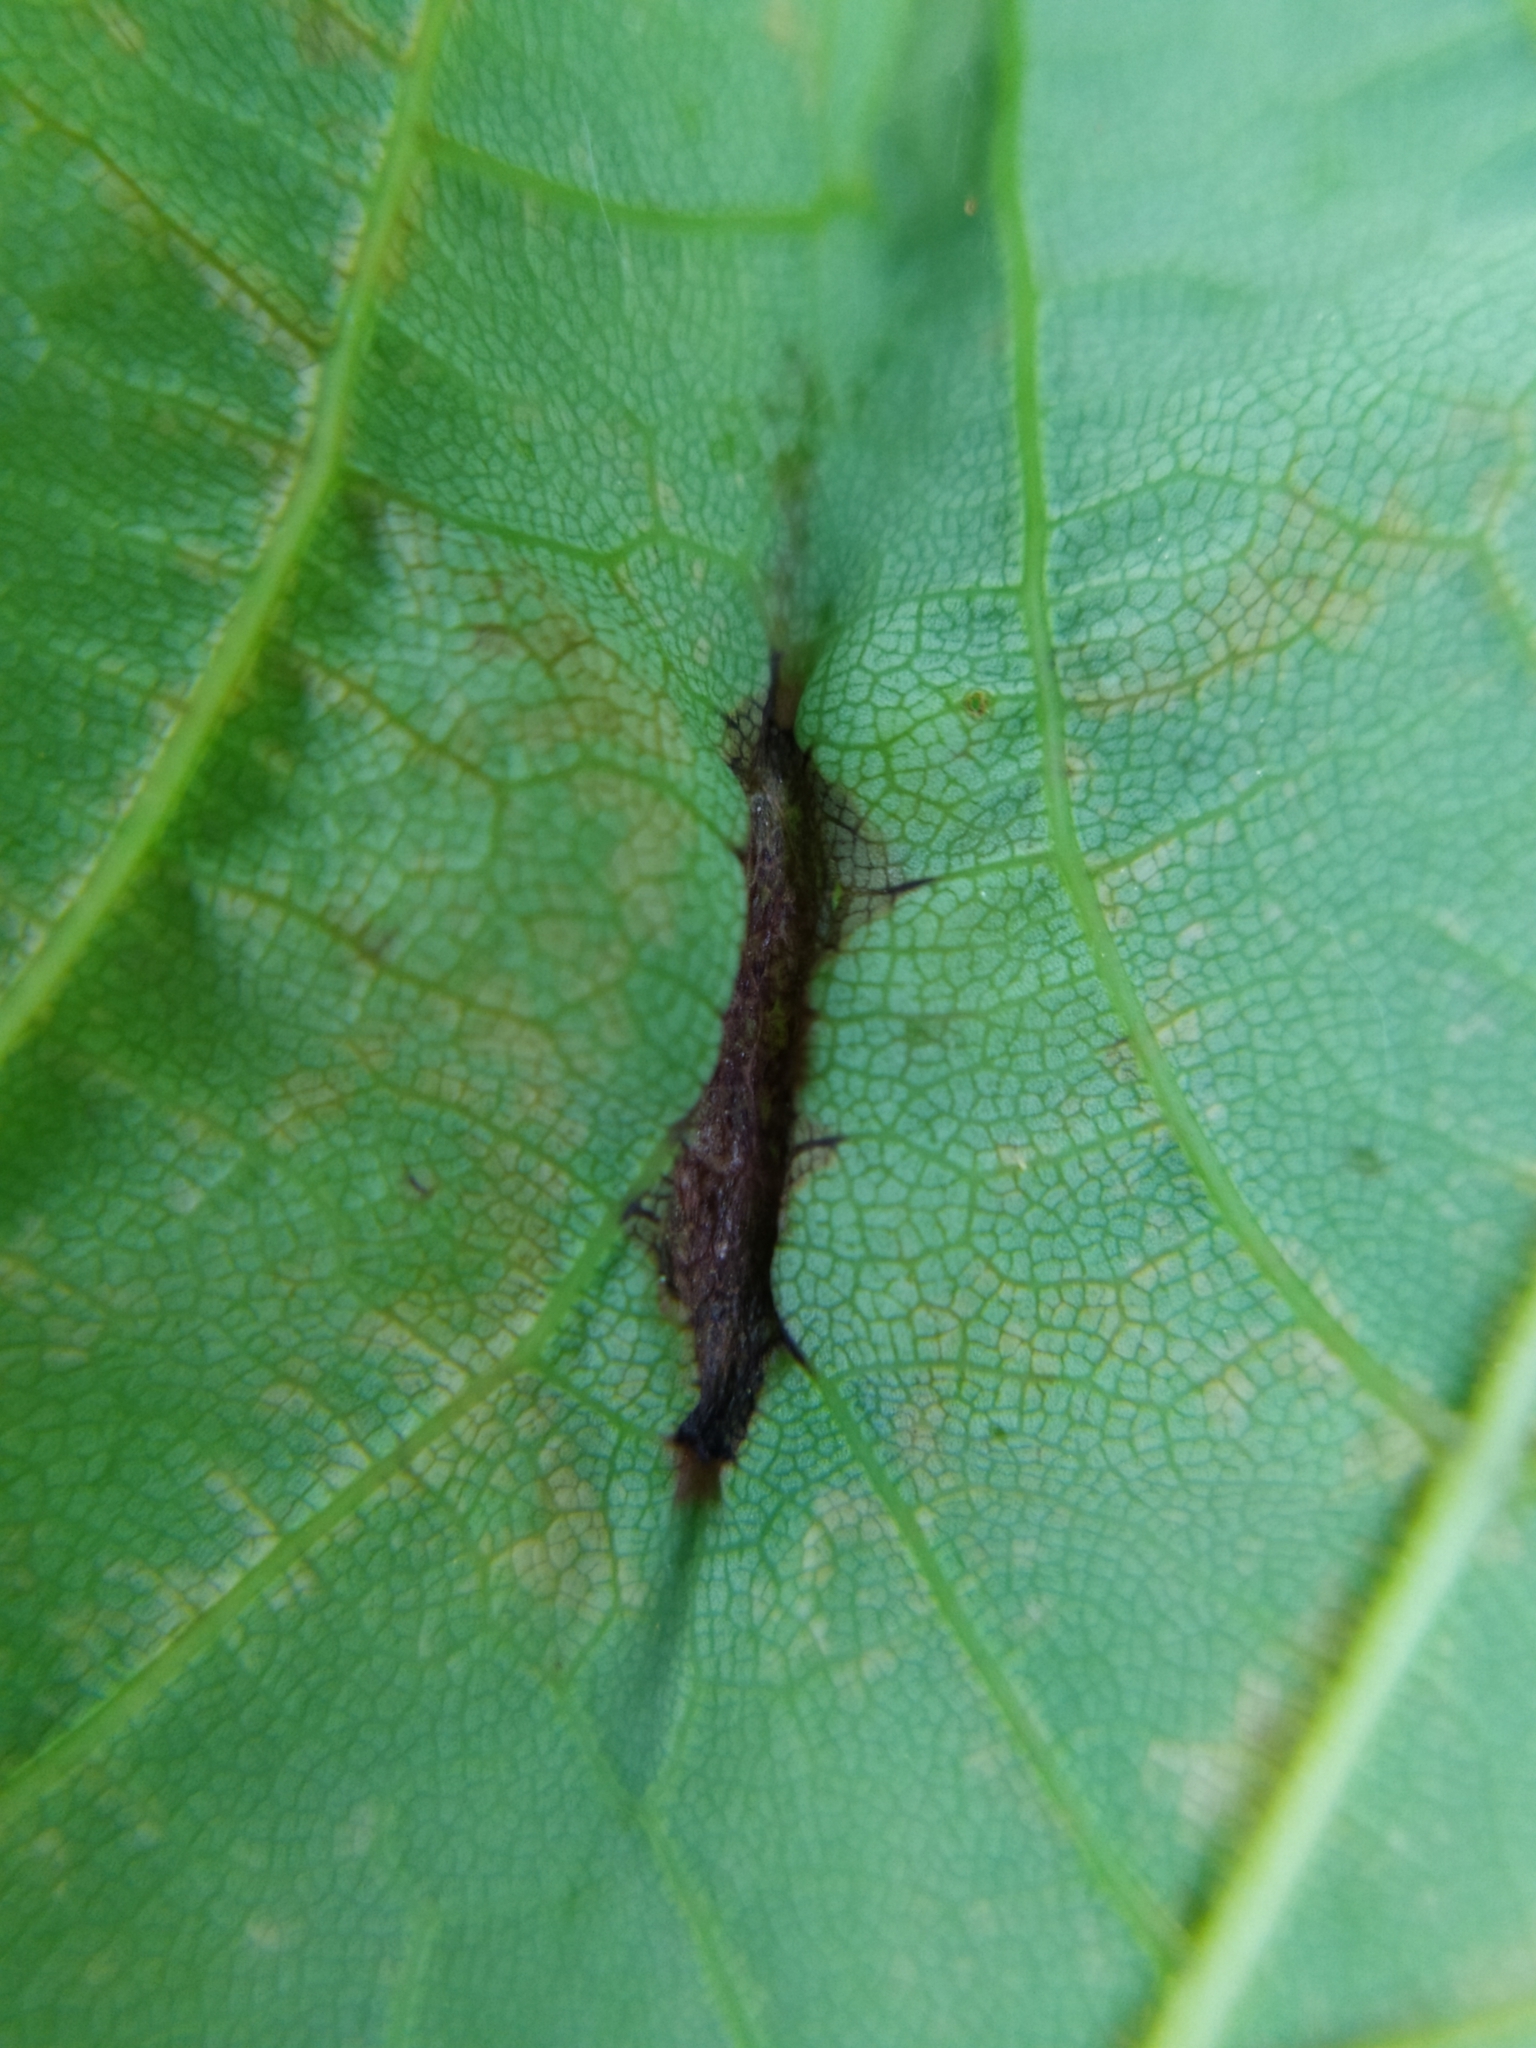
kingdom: Animalia
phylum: Arthropoda
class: Insecta
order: Diptera
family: Cecidomyiidae
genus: Contarinia
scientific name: Contarinia acerplicans
